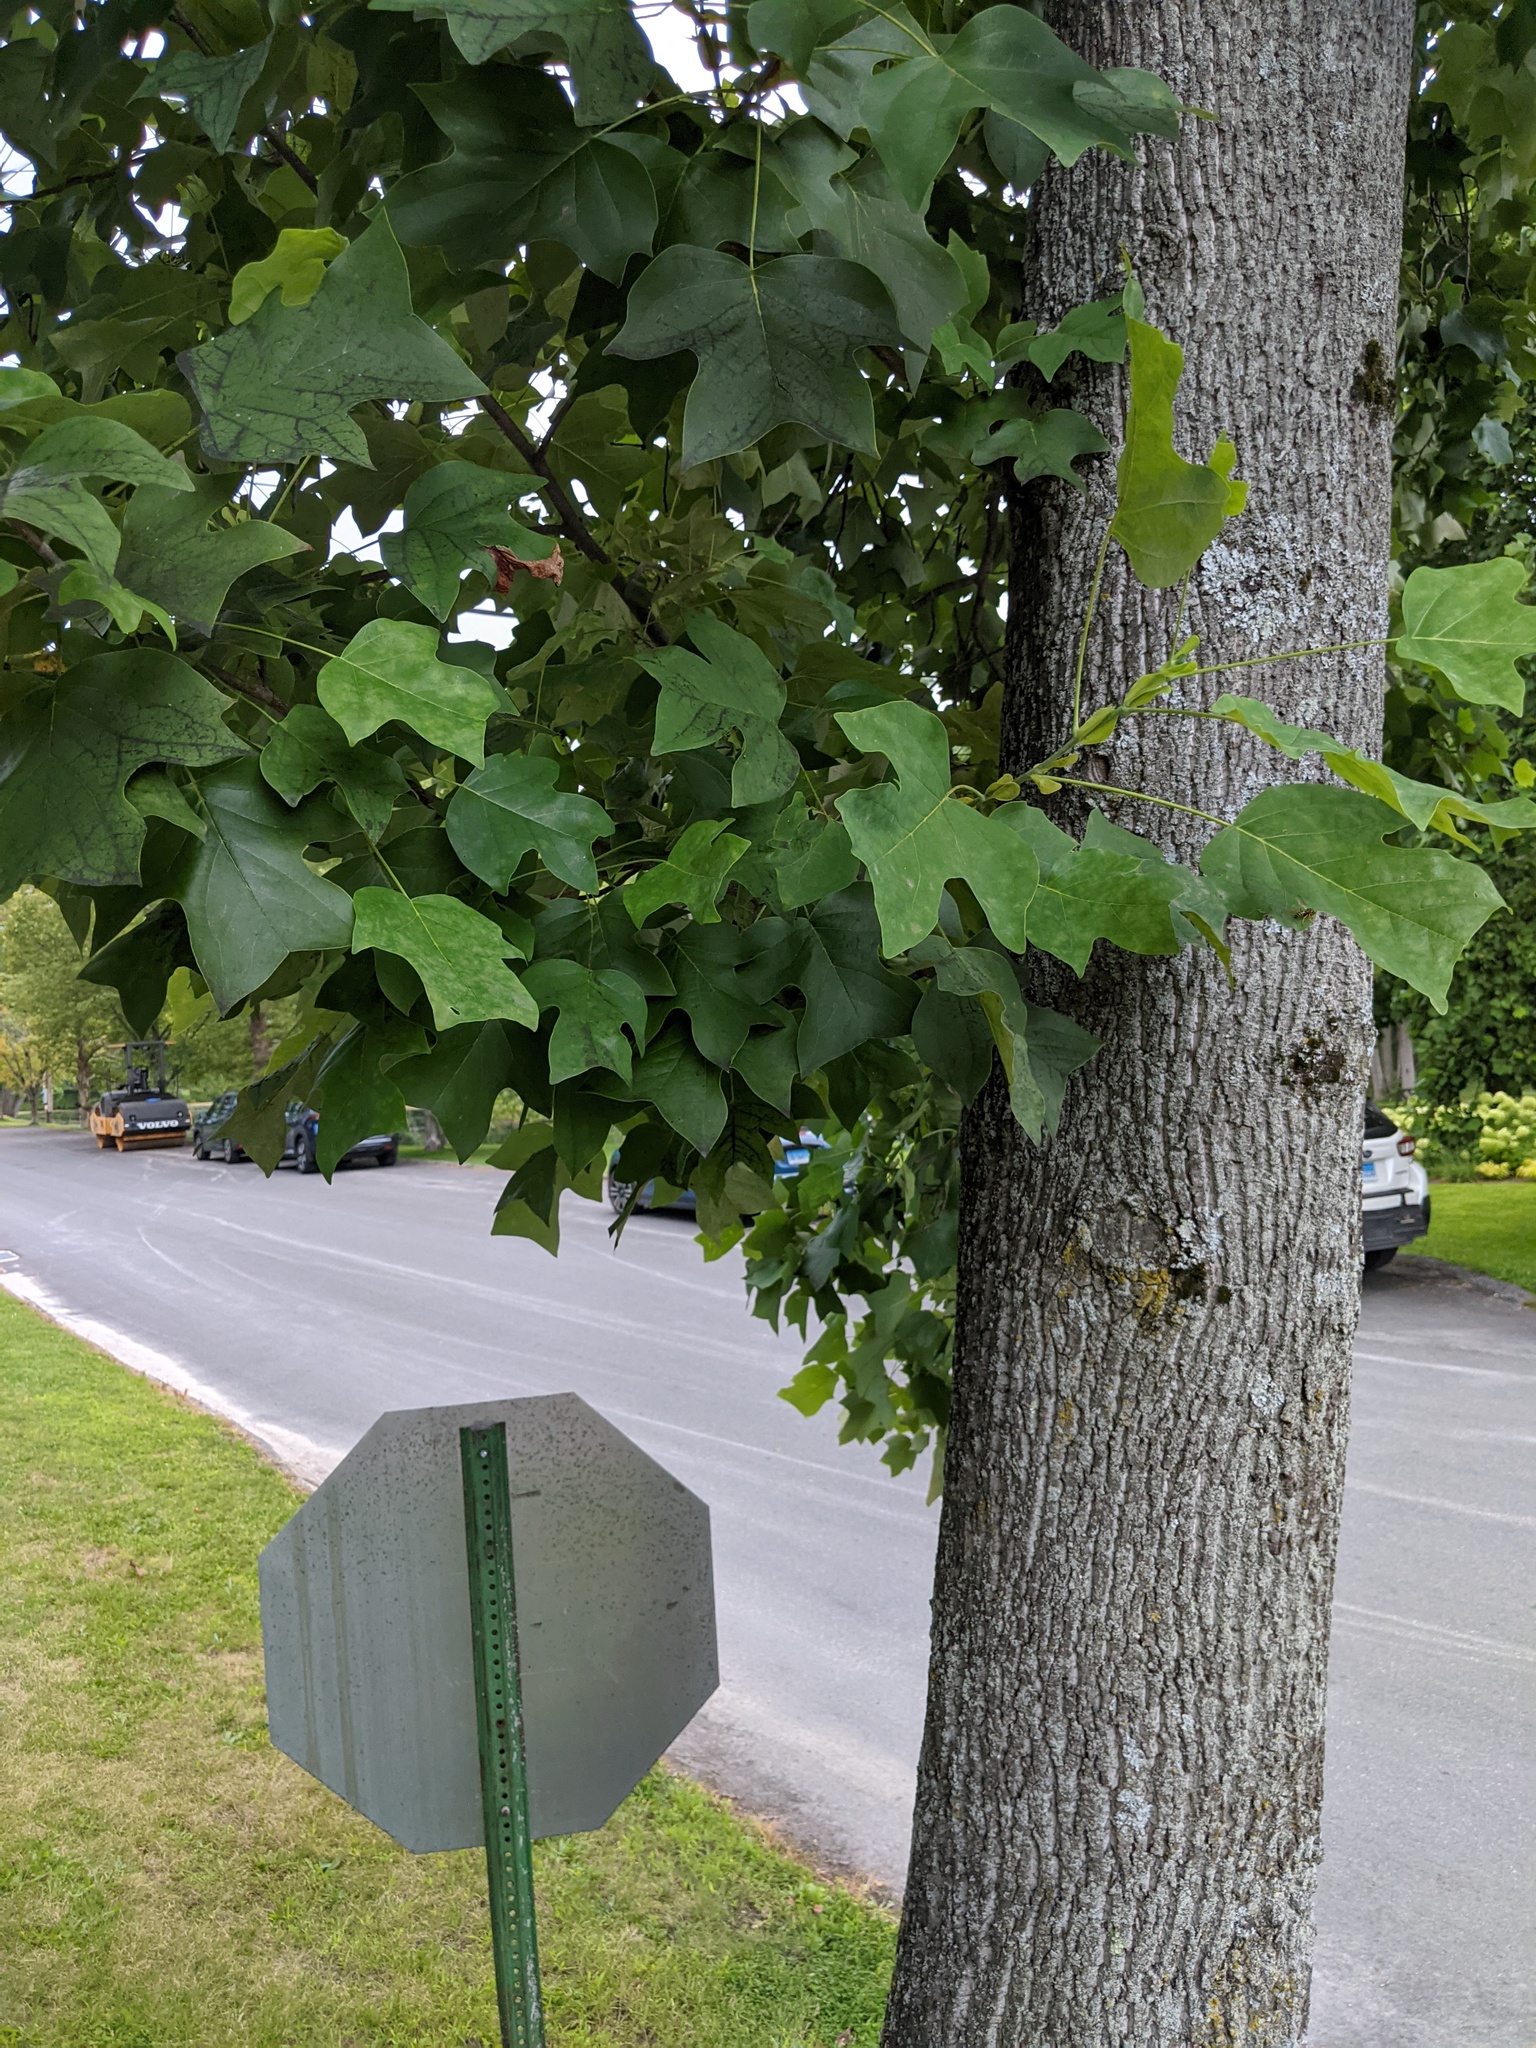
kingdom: Plantae
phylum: Tracheophyta
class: Magnoliopsida
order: Magnoliales
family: Magnoliaceae
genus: Liriodendron
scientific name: Liriodendron tulipifera
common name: Tulip tree
